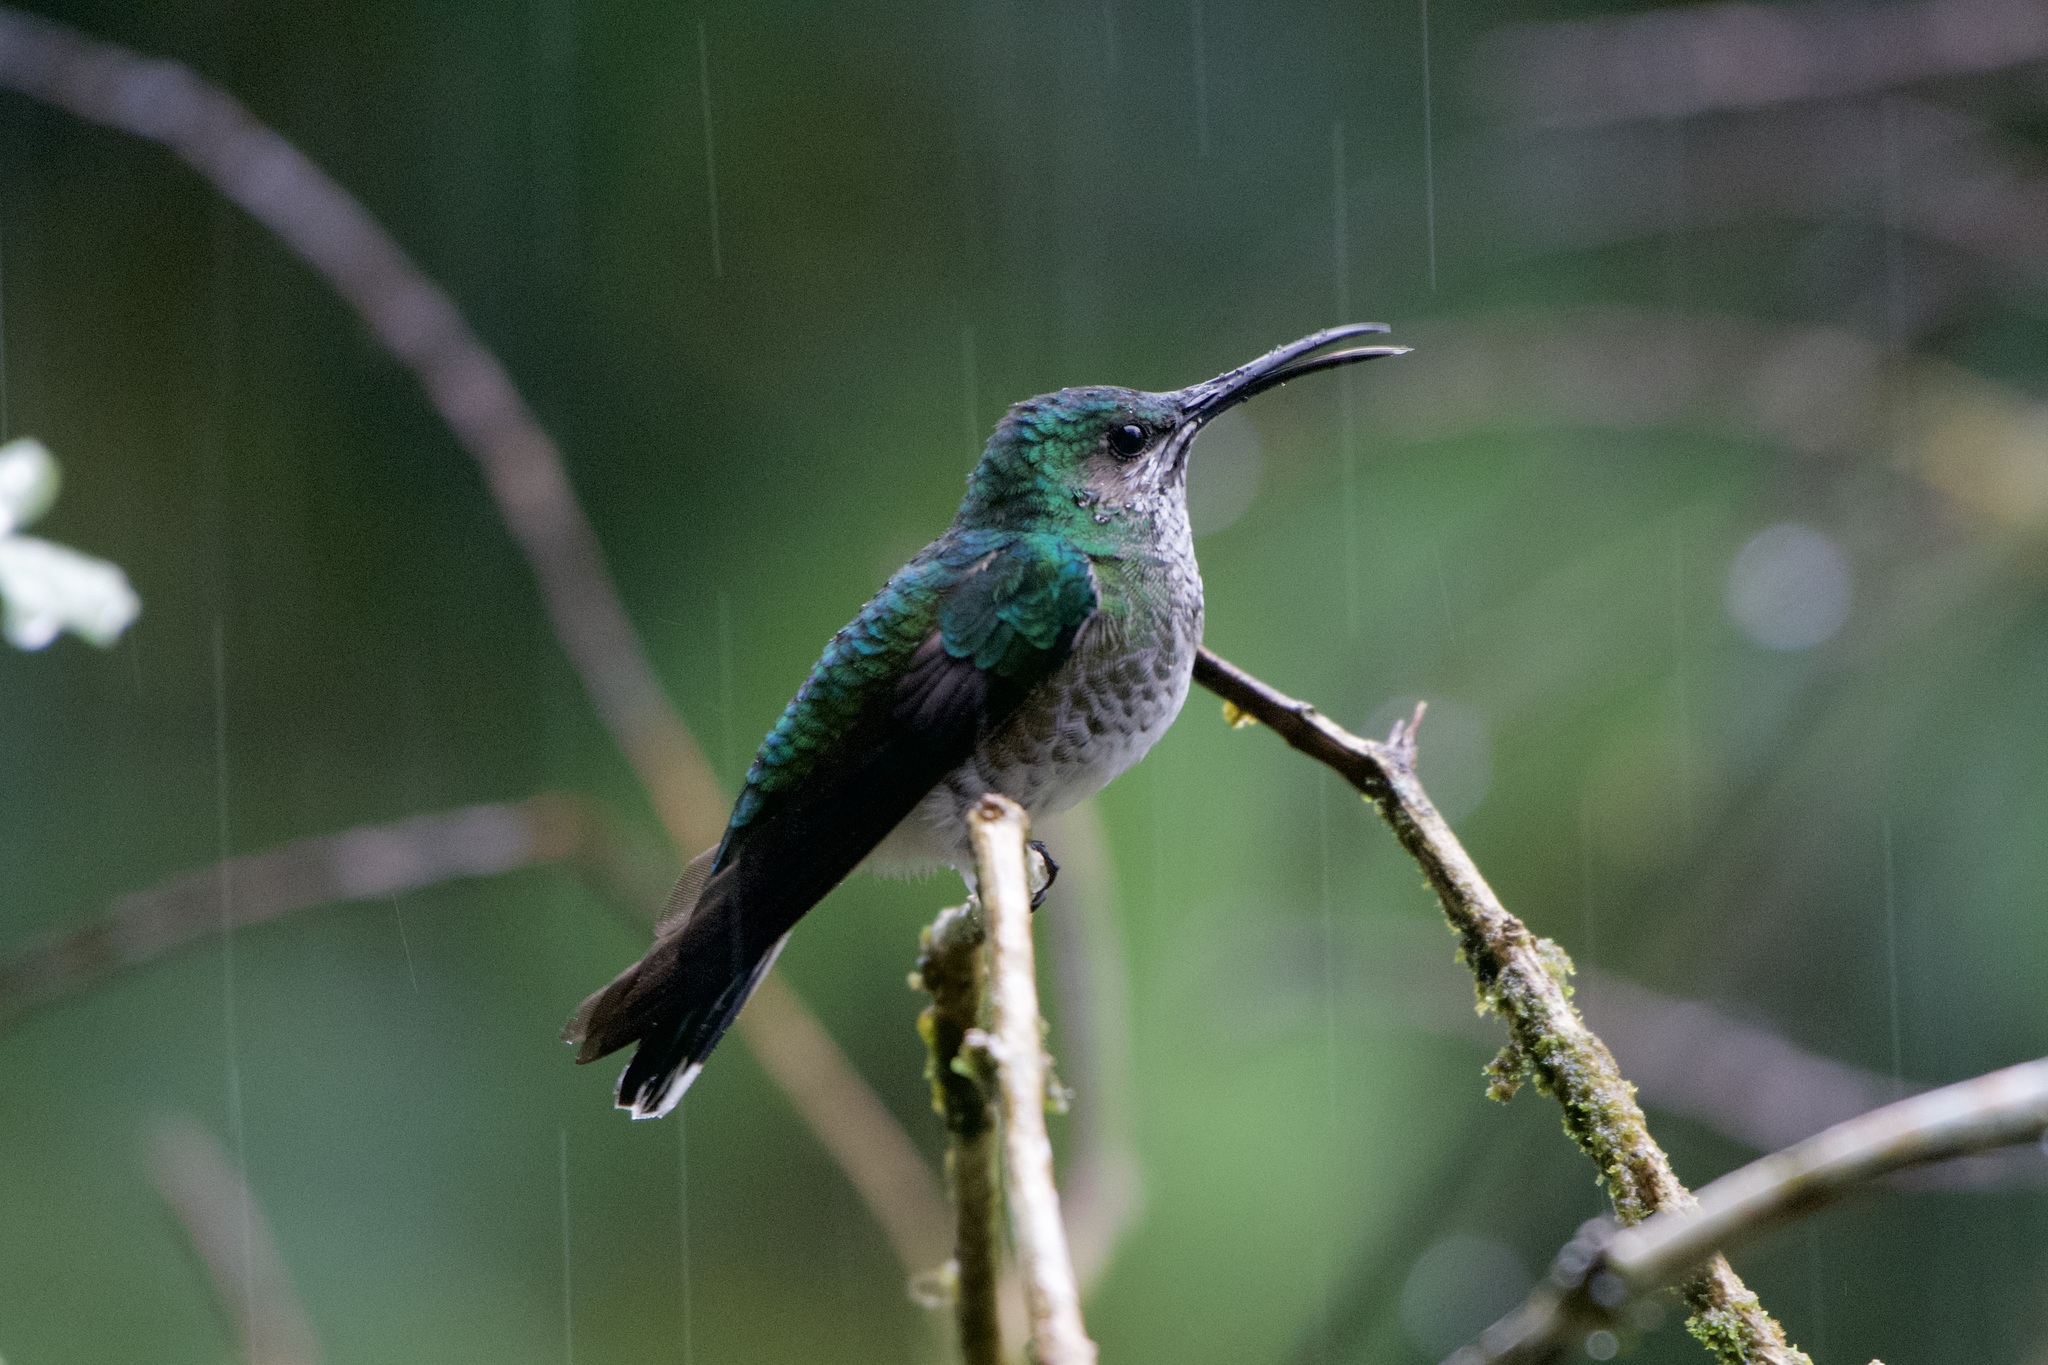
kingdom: Animalia
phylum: Chordata
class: Aves
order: Apodiformes
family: Trochilidae
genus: Florisuga
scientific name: Florisuga mellivora
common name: White-necked jacobin
